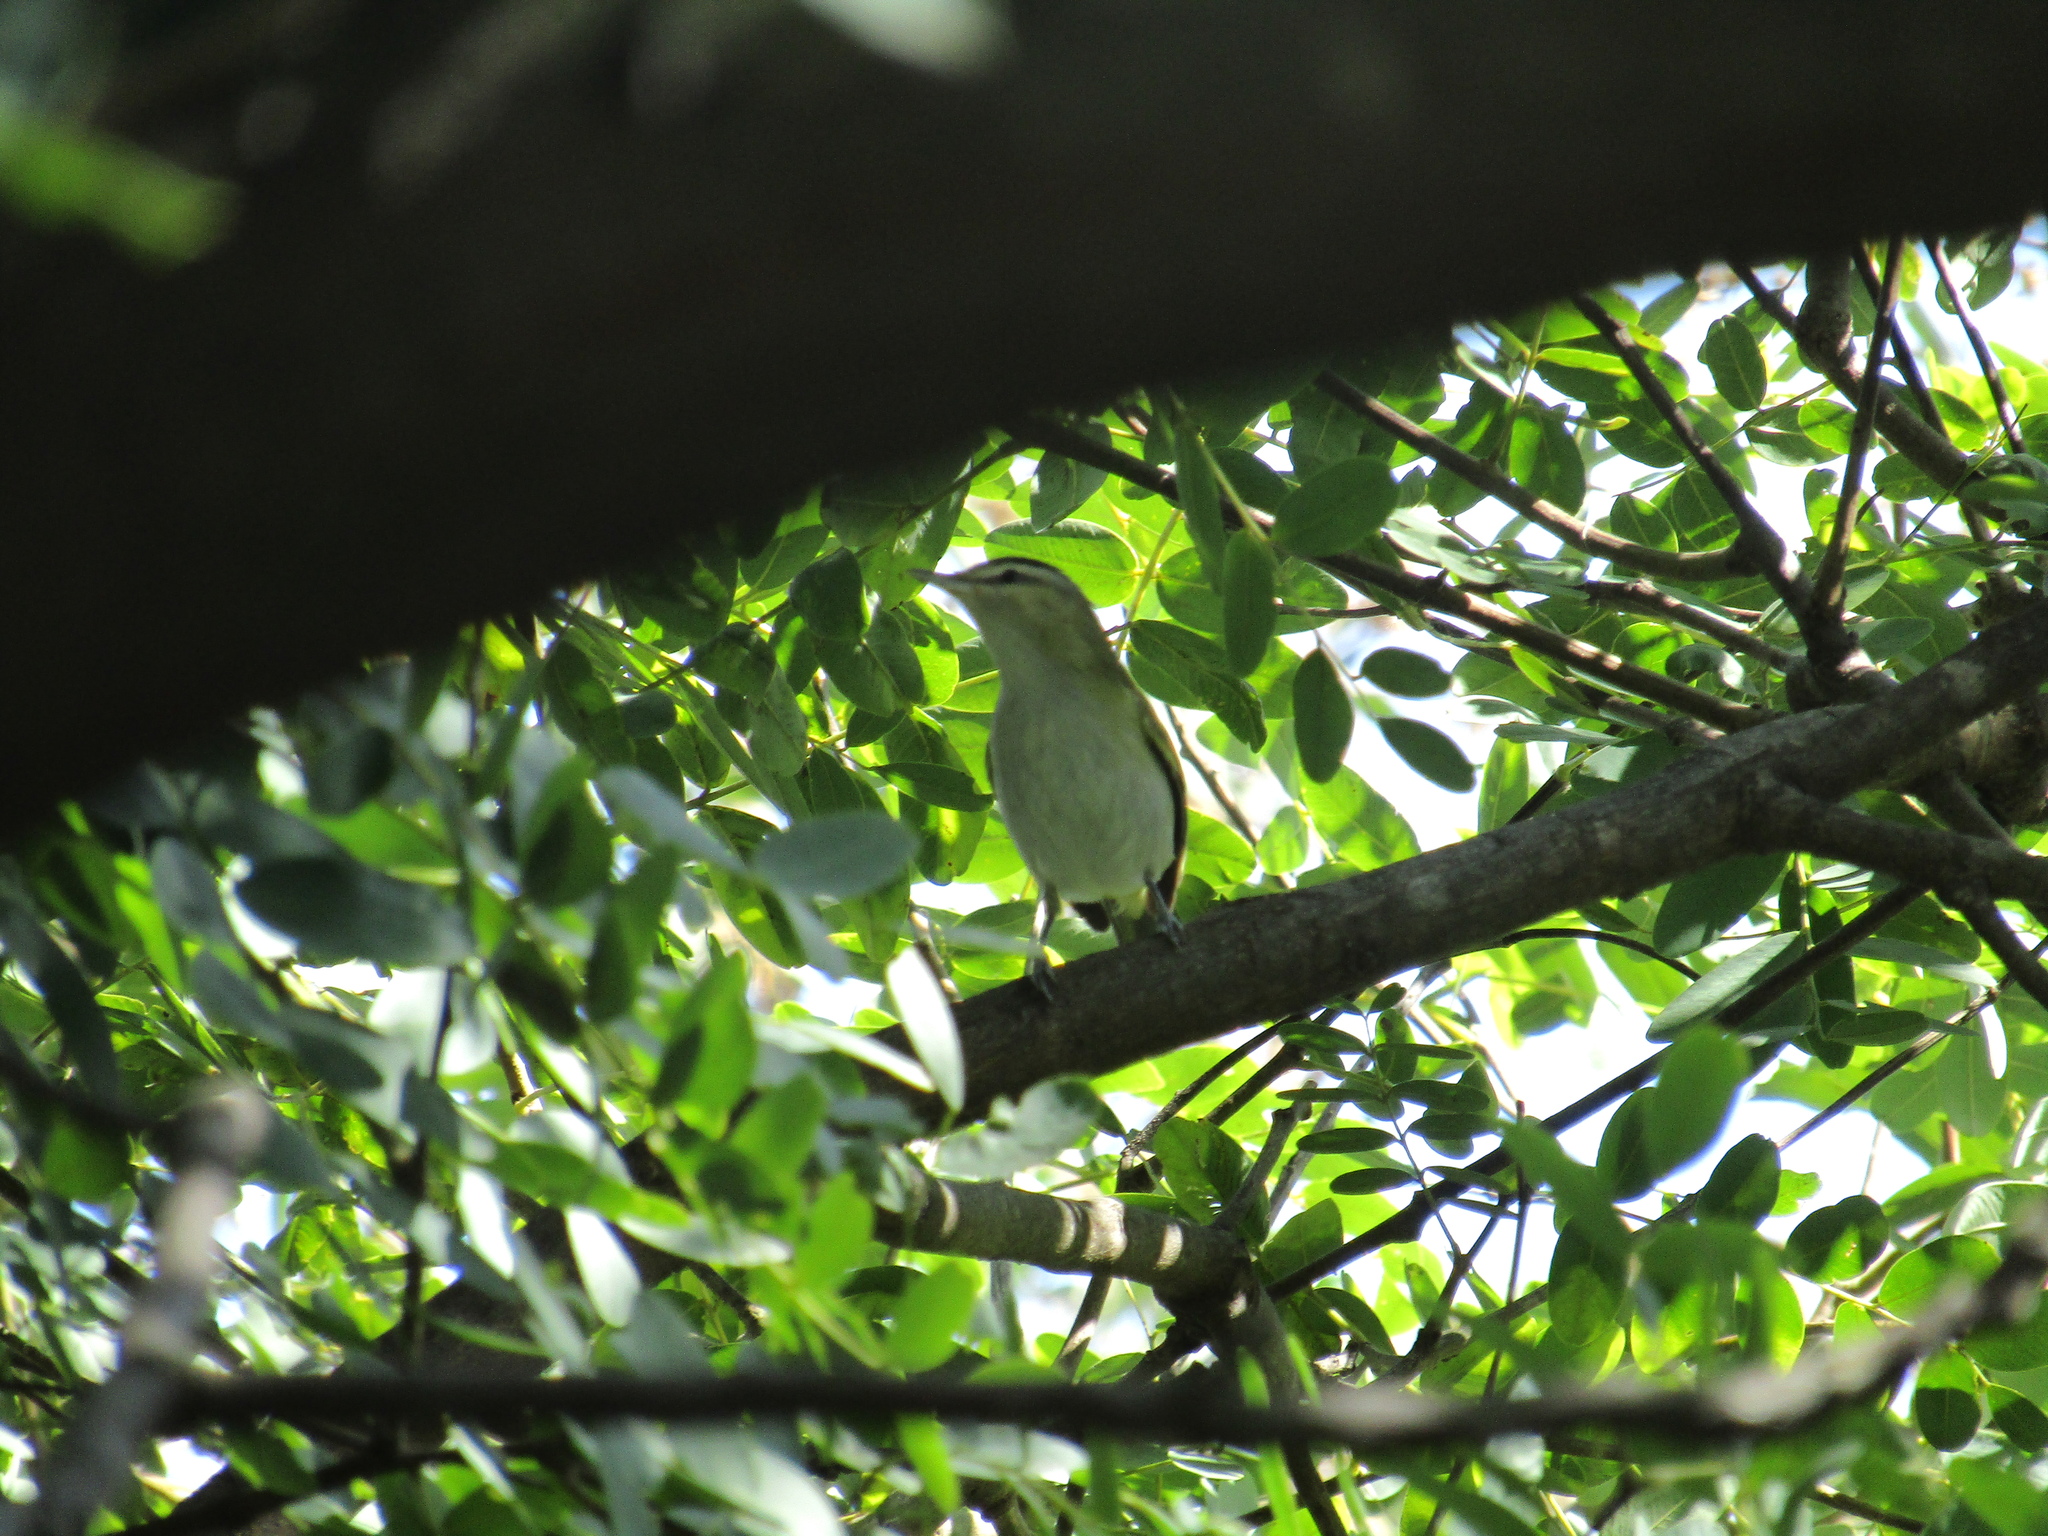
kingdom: Animalia
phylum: Chordata
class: Aves
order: Passeriformes
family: Vireonidae
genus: Vireo
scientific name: Vireo olivaceus
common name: Red-eyed vireo
